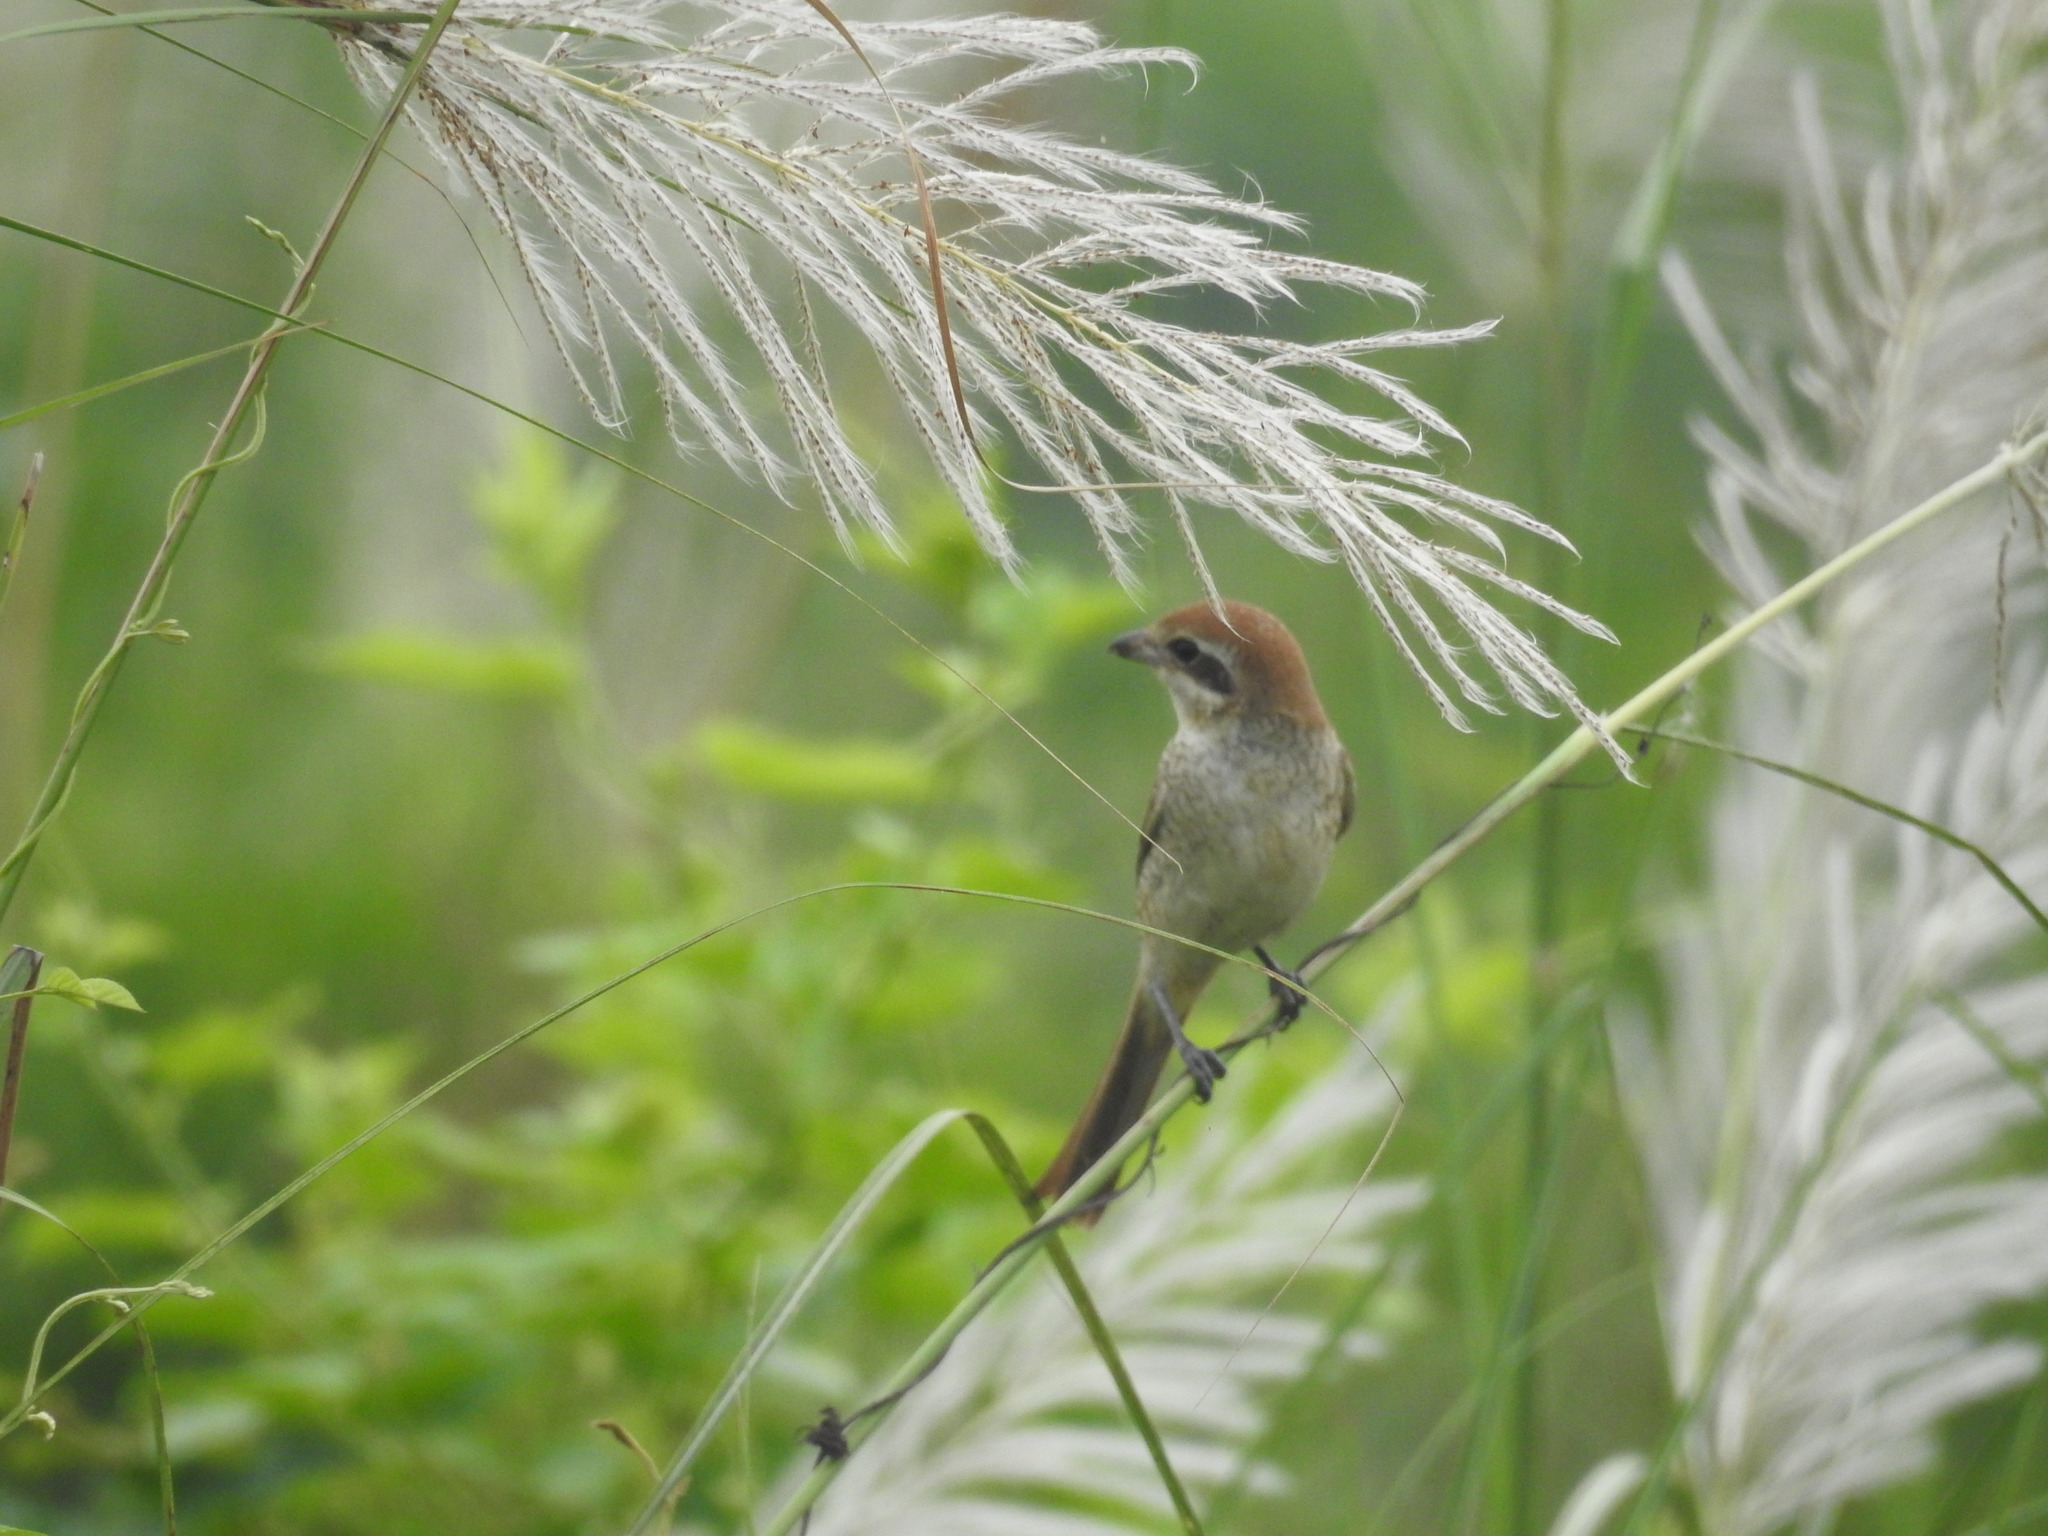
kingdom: Animalia
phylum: Chordata
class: Aves
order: Passeriformes
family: Laniidae
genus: Lanius
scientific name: Lanius cristatus
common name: Brown shrike
